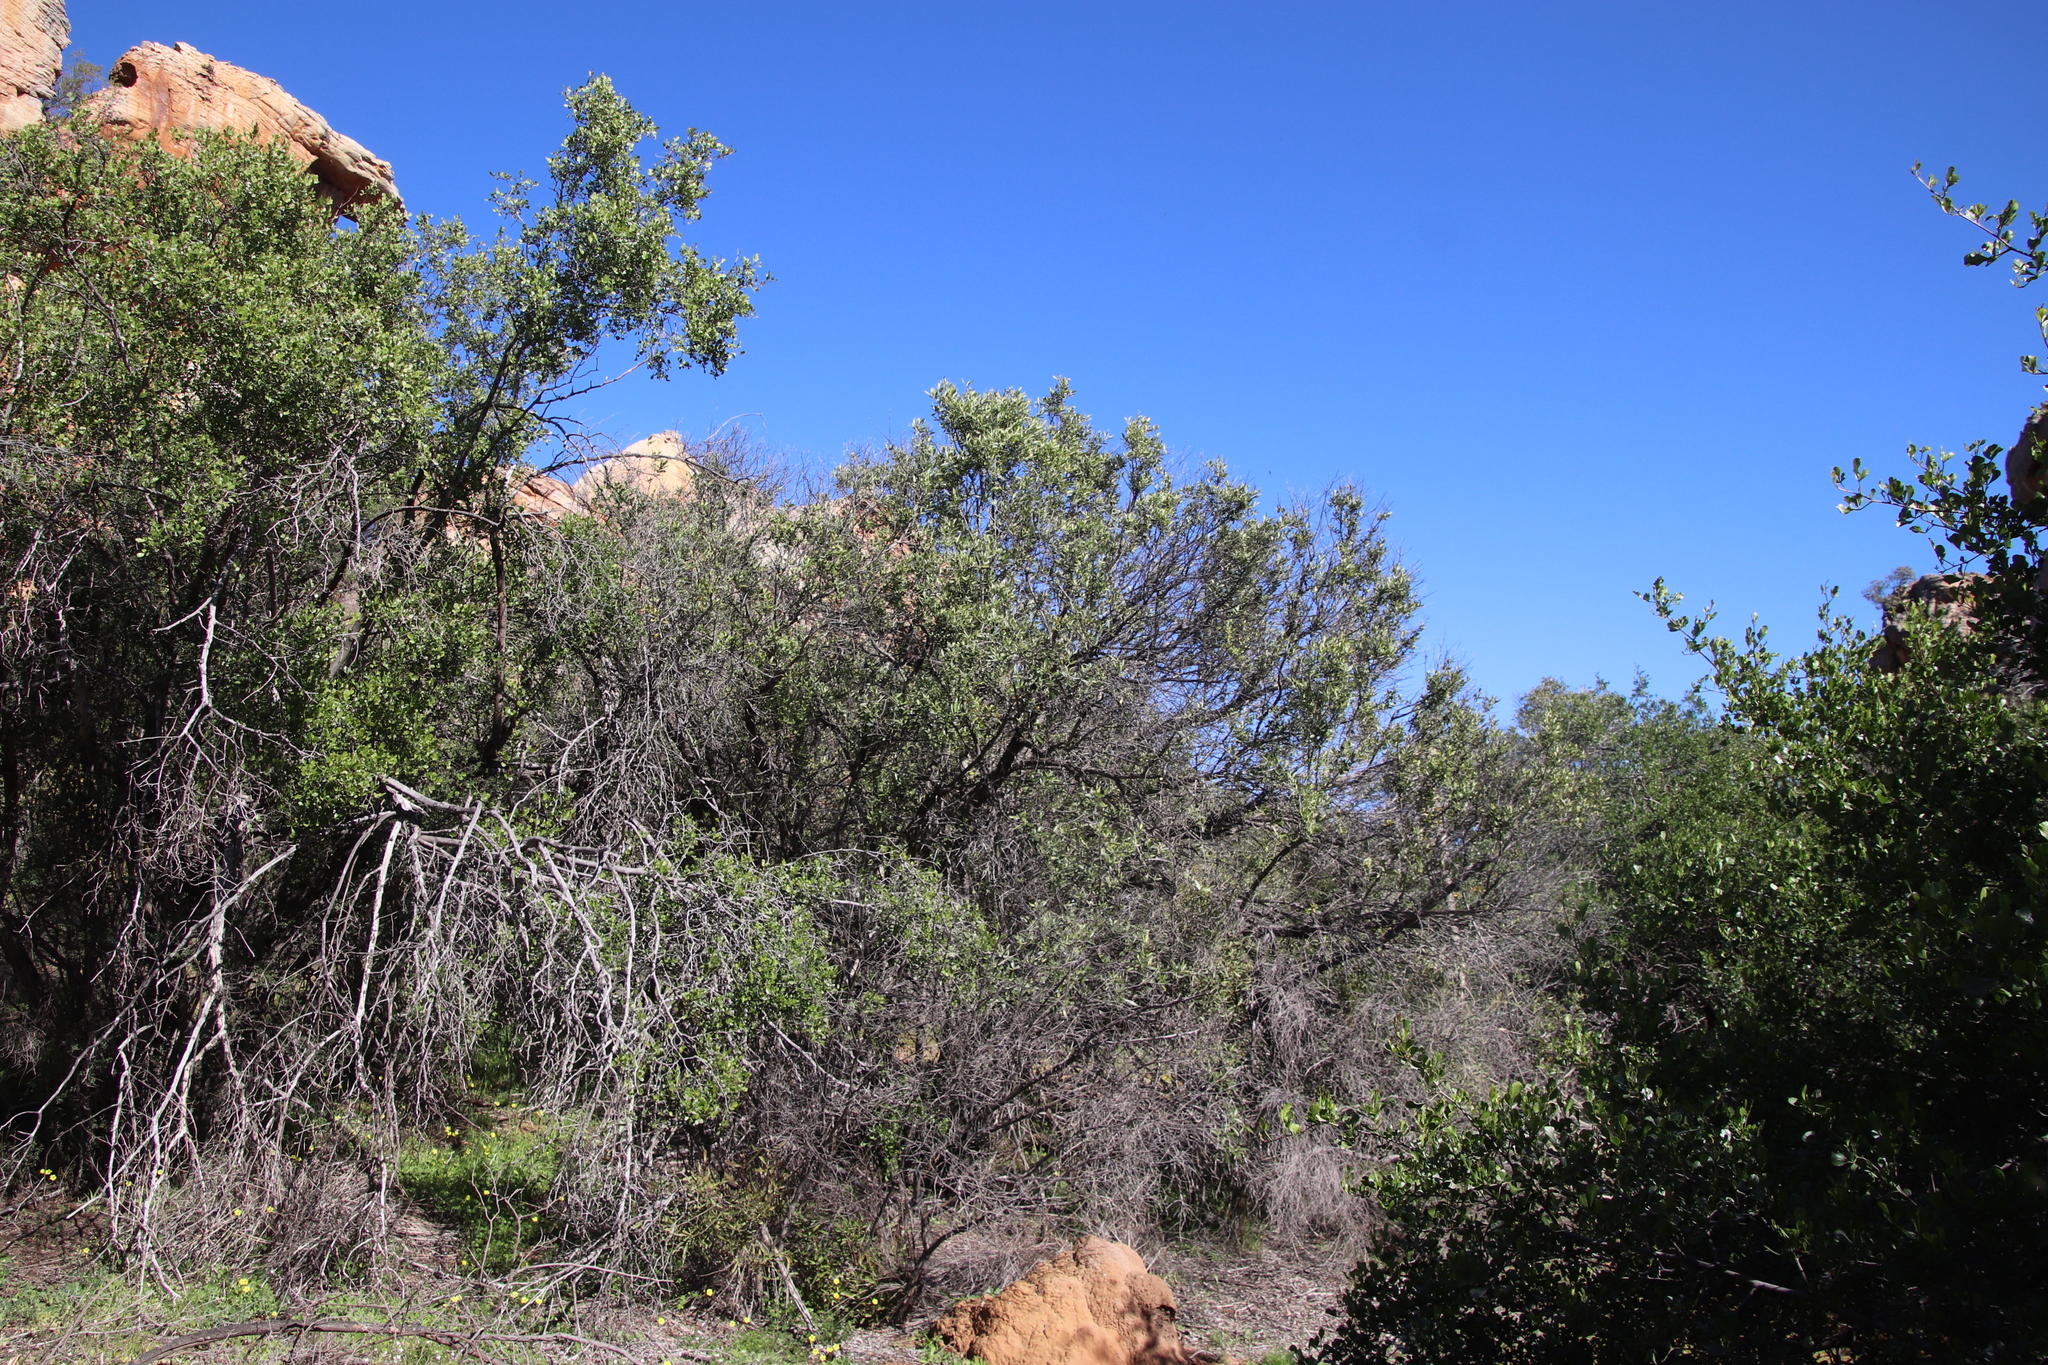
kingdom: Plantae
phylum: Tracheophyta
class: Magnoliopsida
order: Lamiales
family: Oleaceae
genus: Olea
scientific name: Olea europaea
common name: Olive
